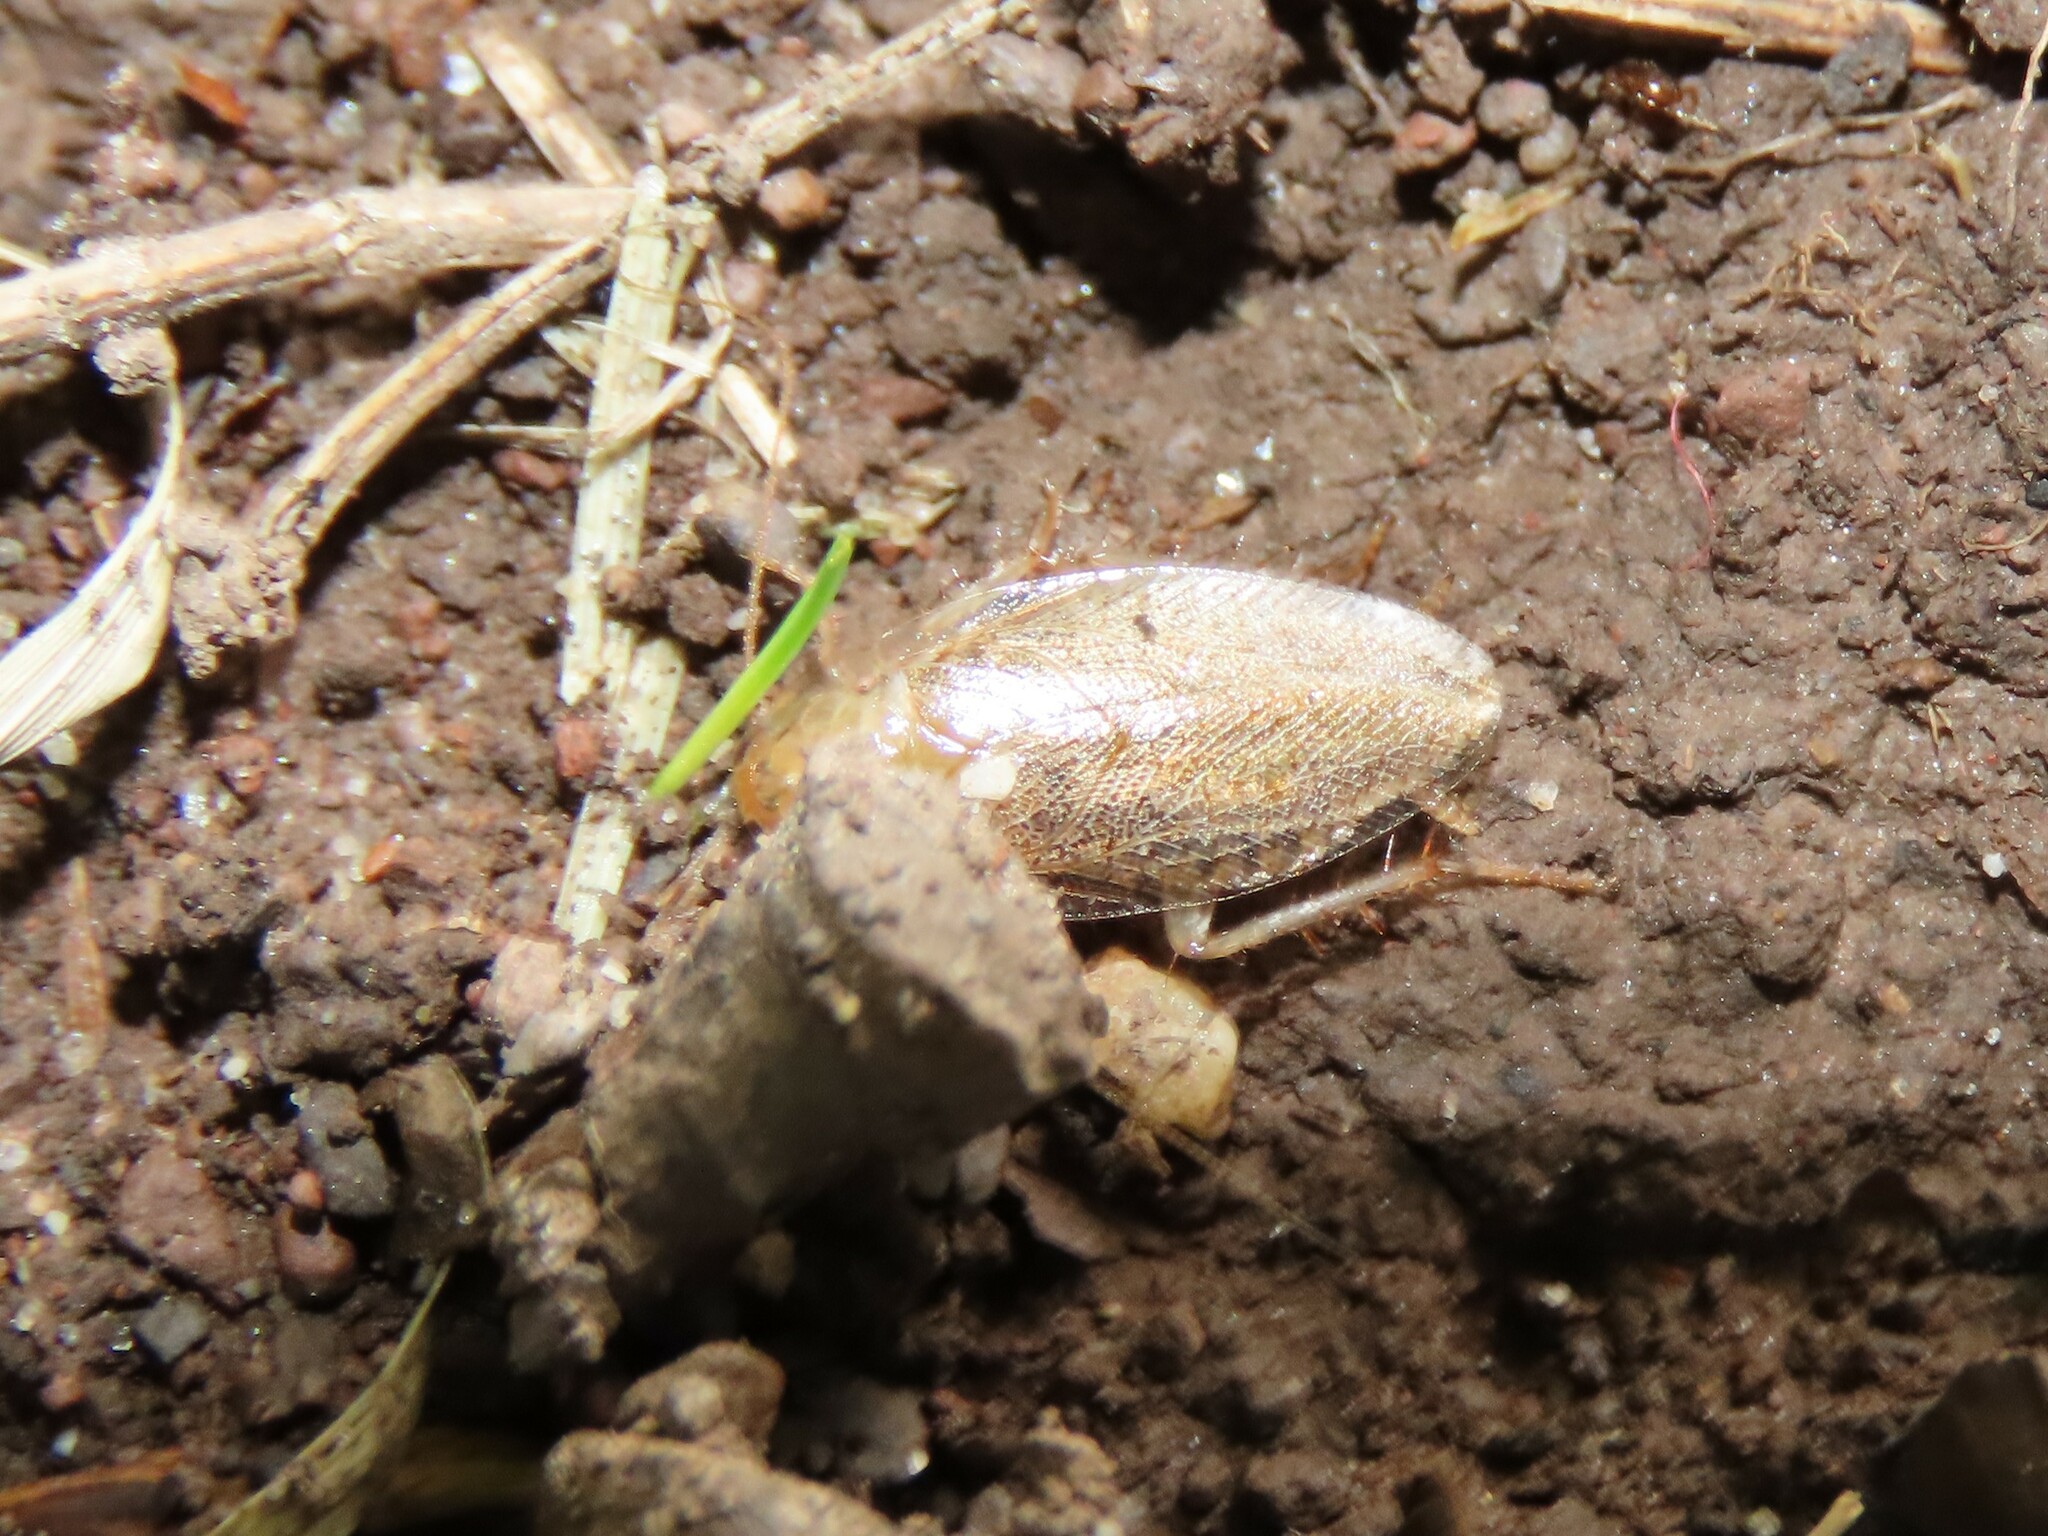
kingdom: Animalia
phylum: Arthropoda
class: Insecta
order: Blattodea
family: Ectobiidae
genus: Ectobius
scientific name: Ectobius pallidus
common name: Tawny cockroach
